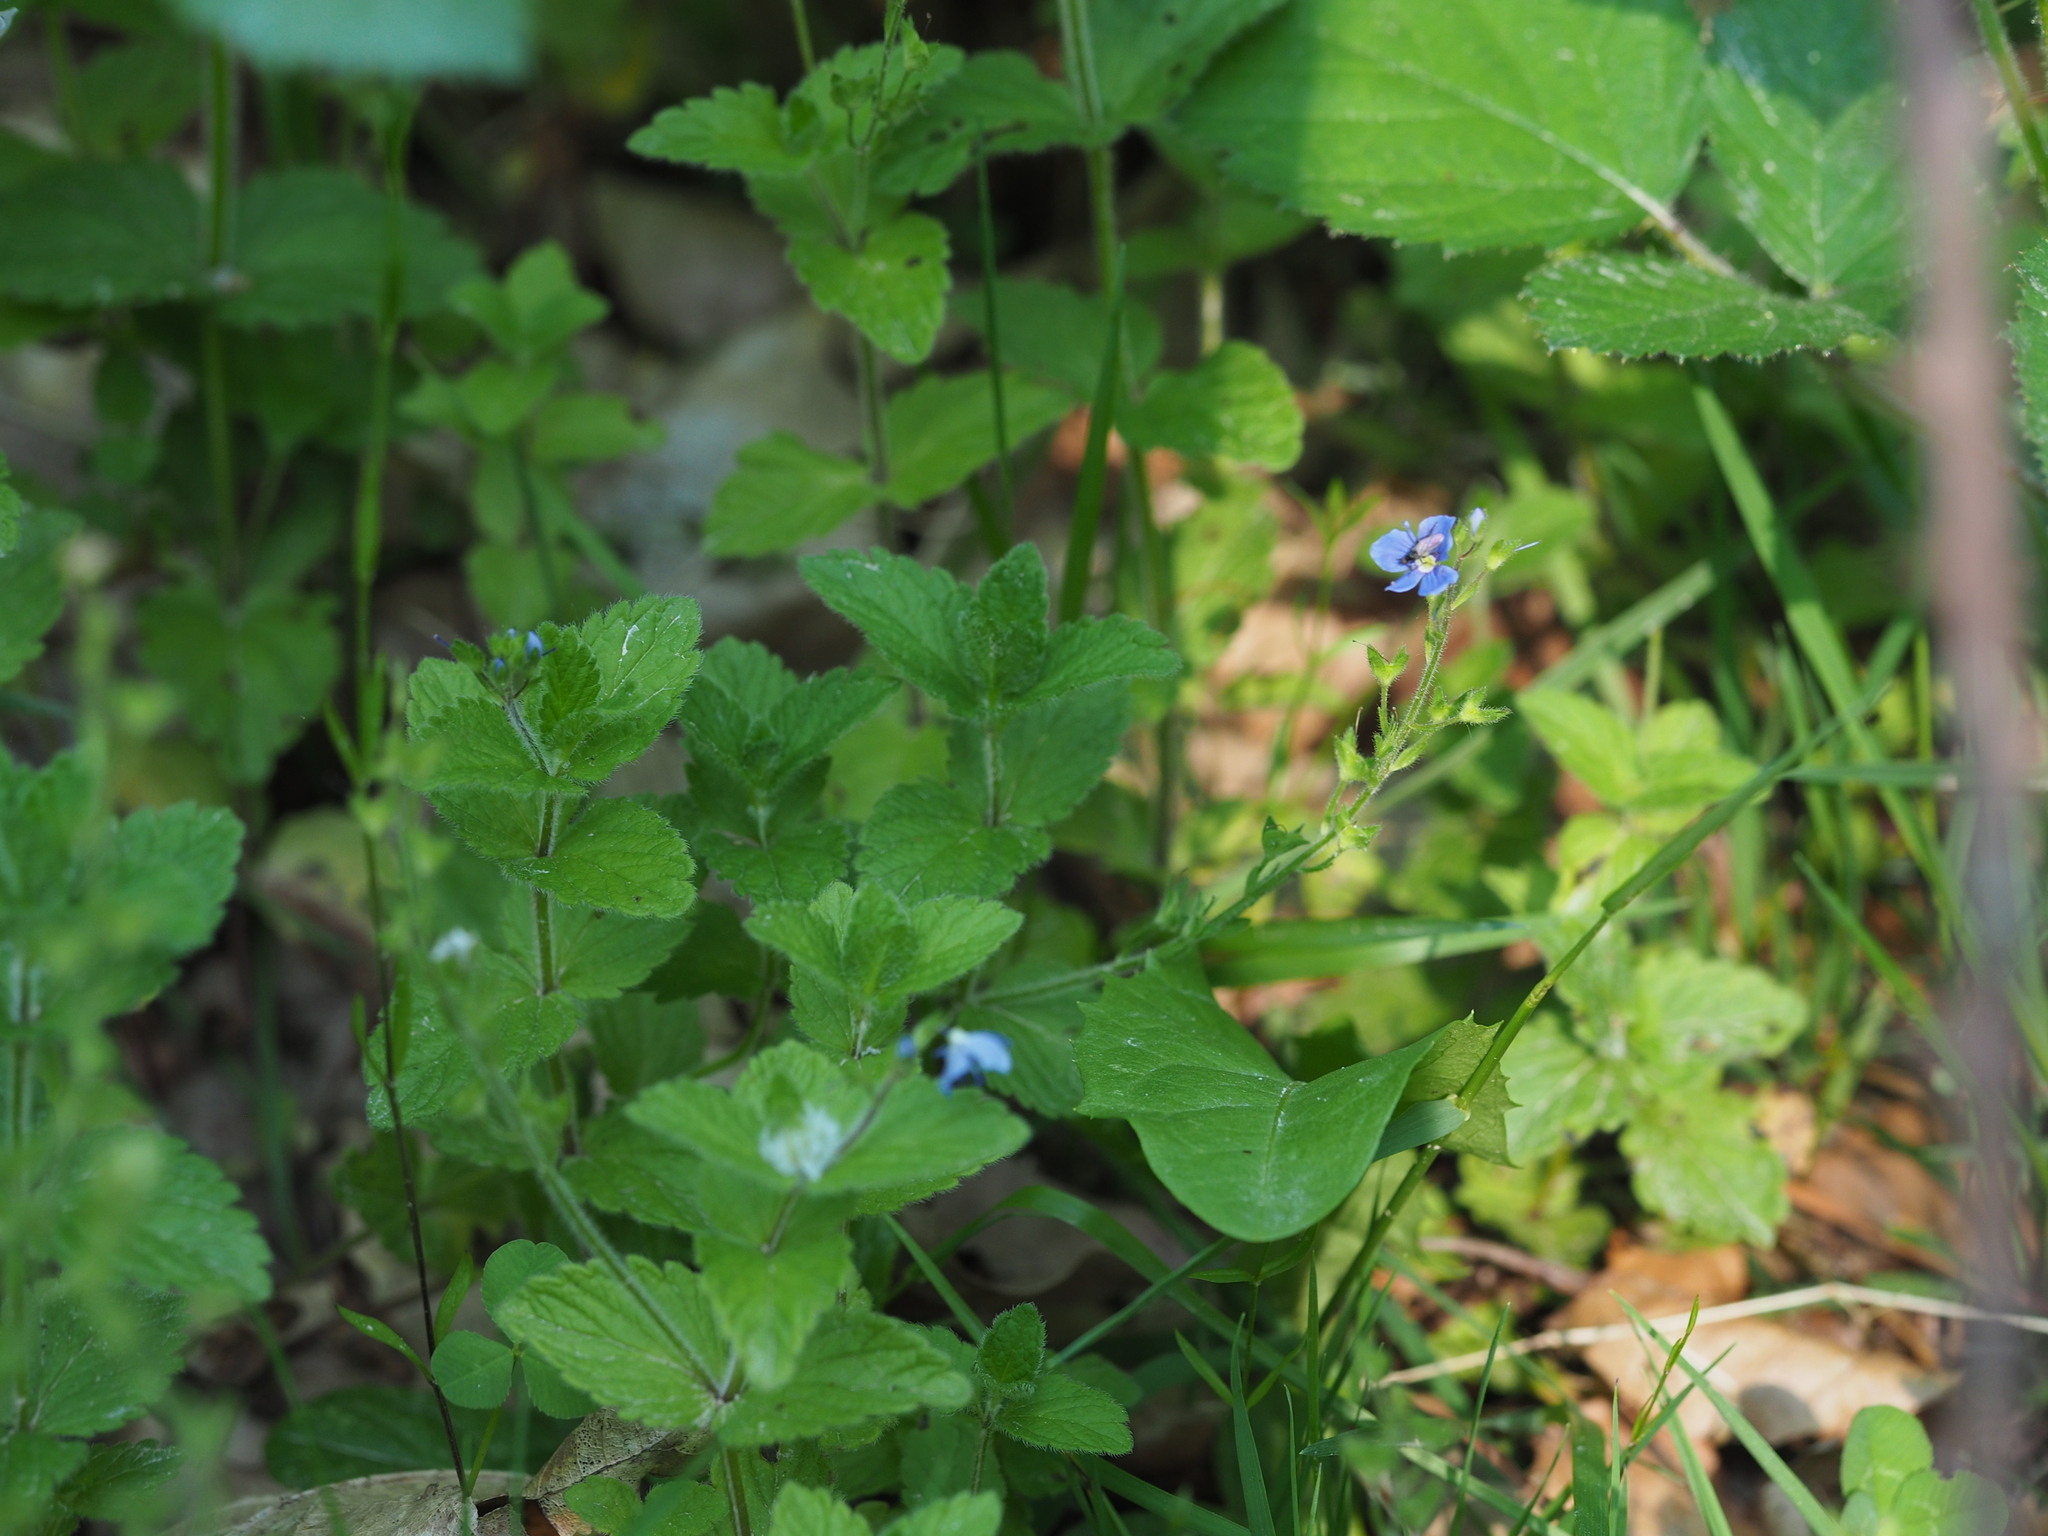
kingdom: Plantae
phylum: Tracheophyta
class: Magnoliopsida
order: Lamiales
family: Plantaginaceae
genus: Veronica
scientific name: Veronica chamaedrys
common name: Germander speedwell
